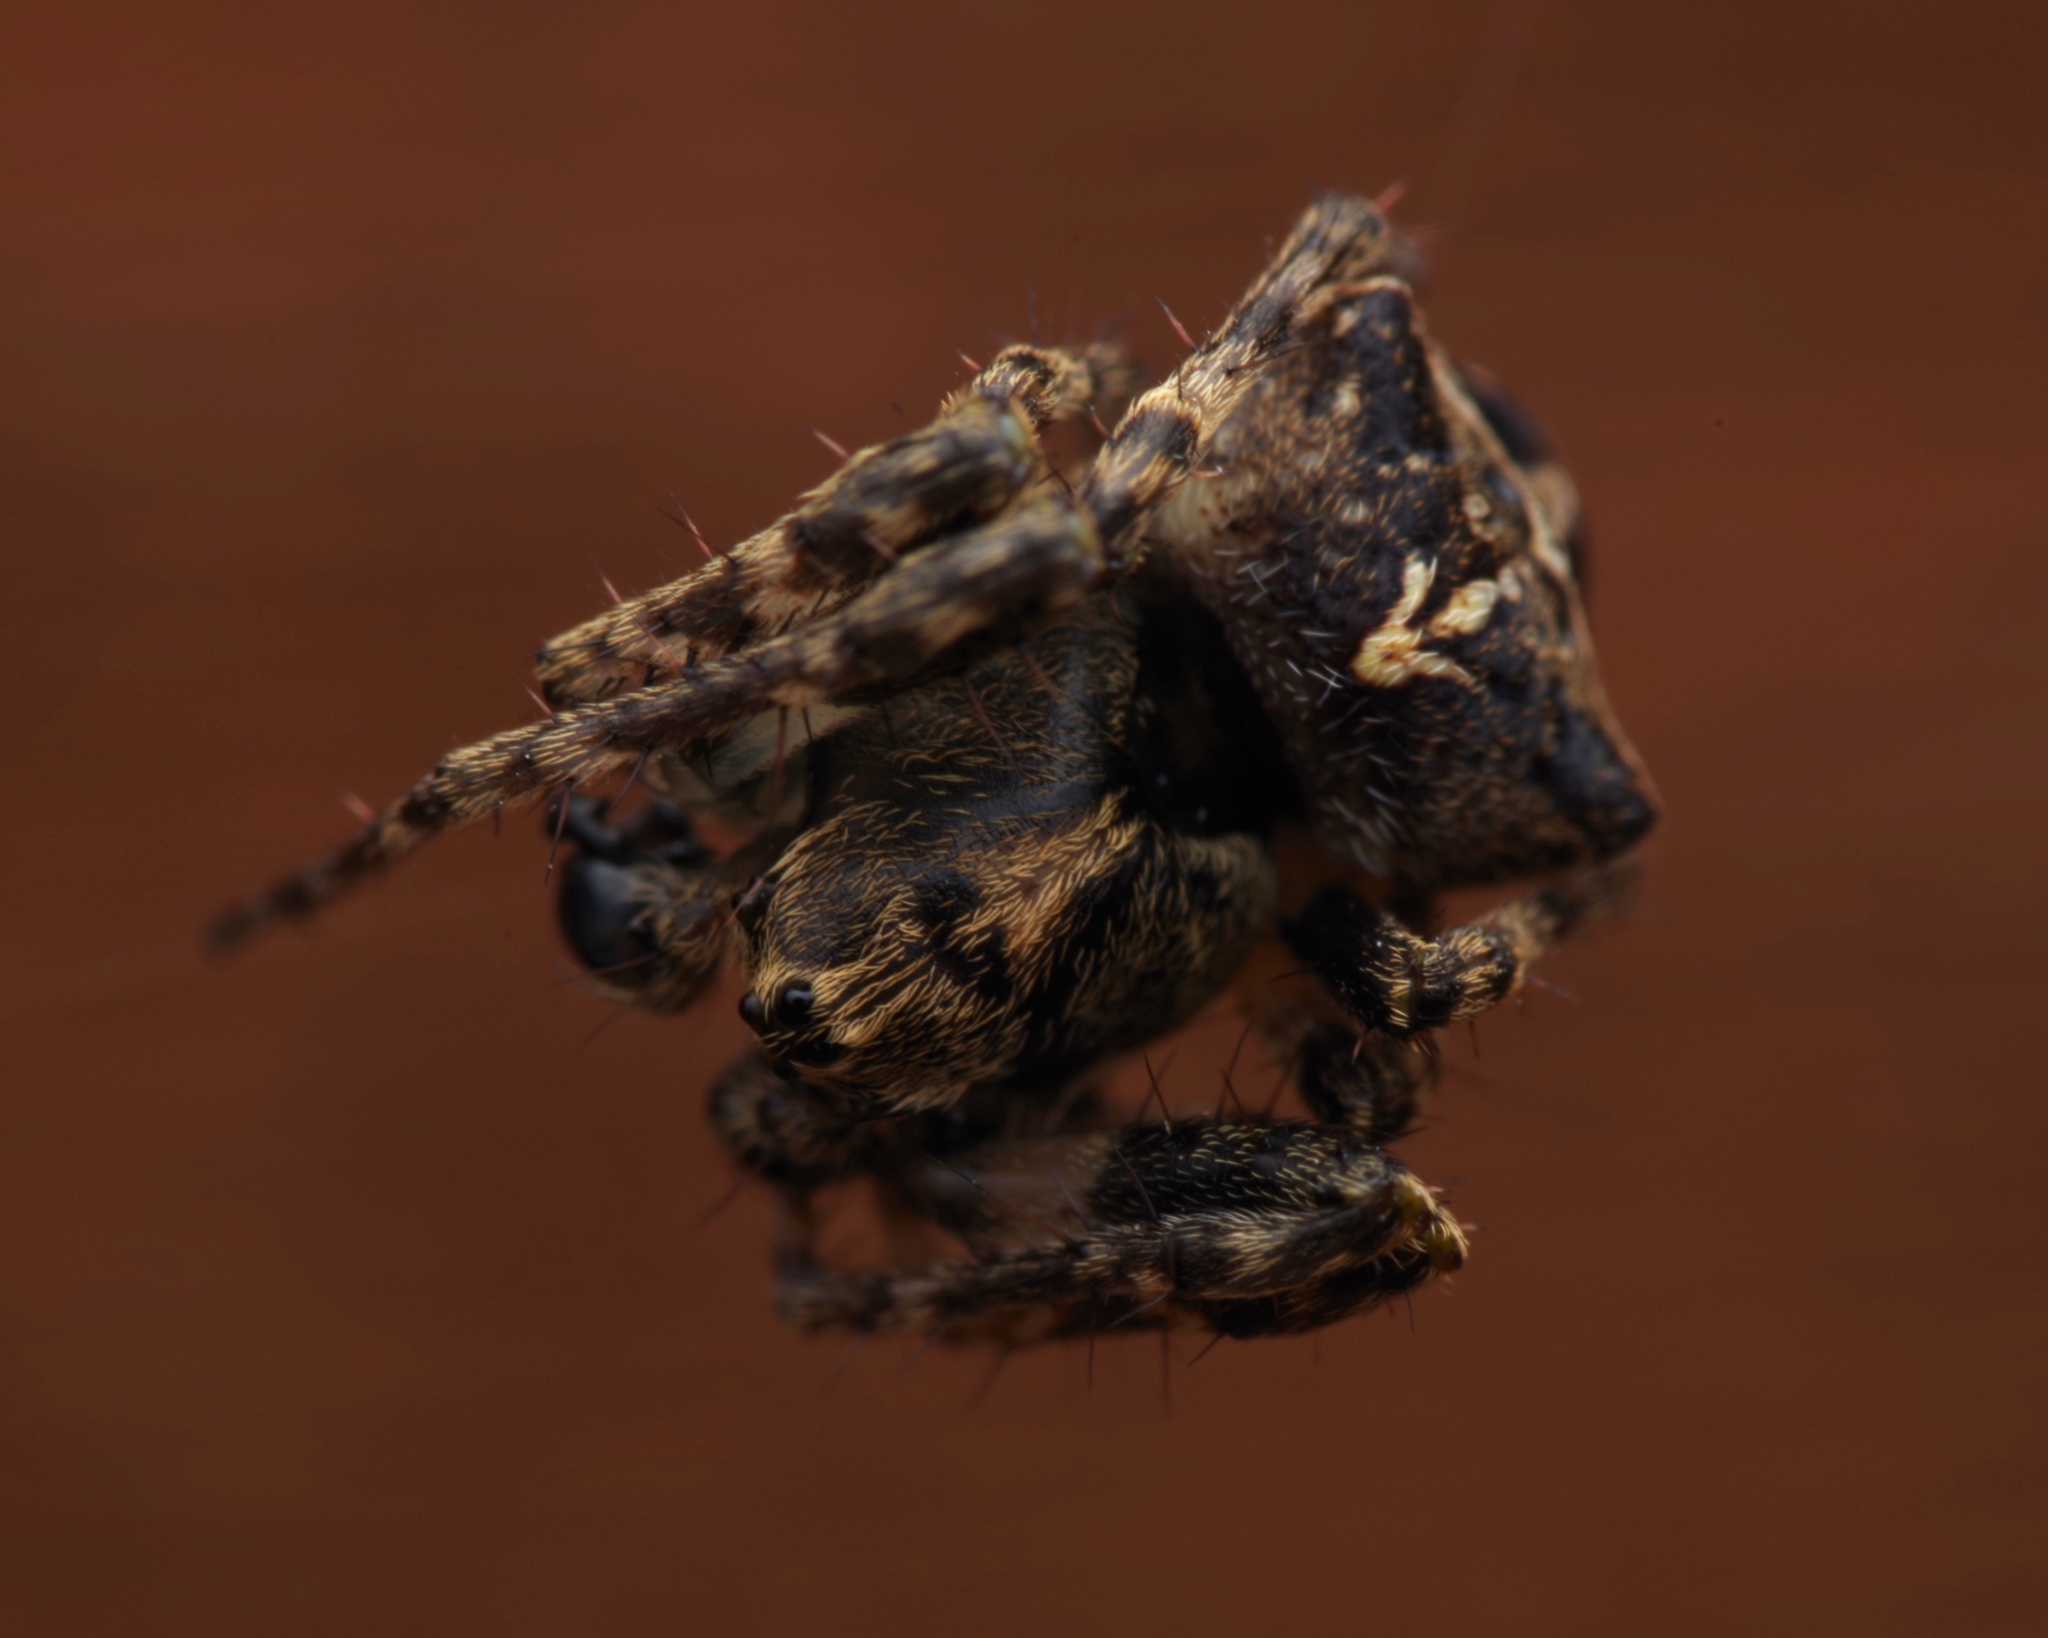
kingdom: Animalia
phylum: Arthropoda
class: Arachnida
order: Araneae
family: Araneidae
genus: Gibbaranea
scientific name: Gibbaranea bituberculata
